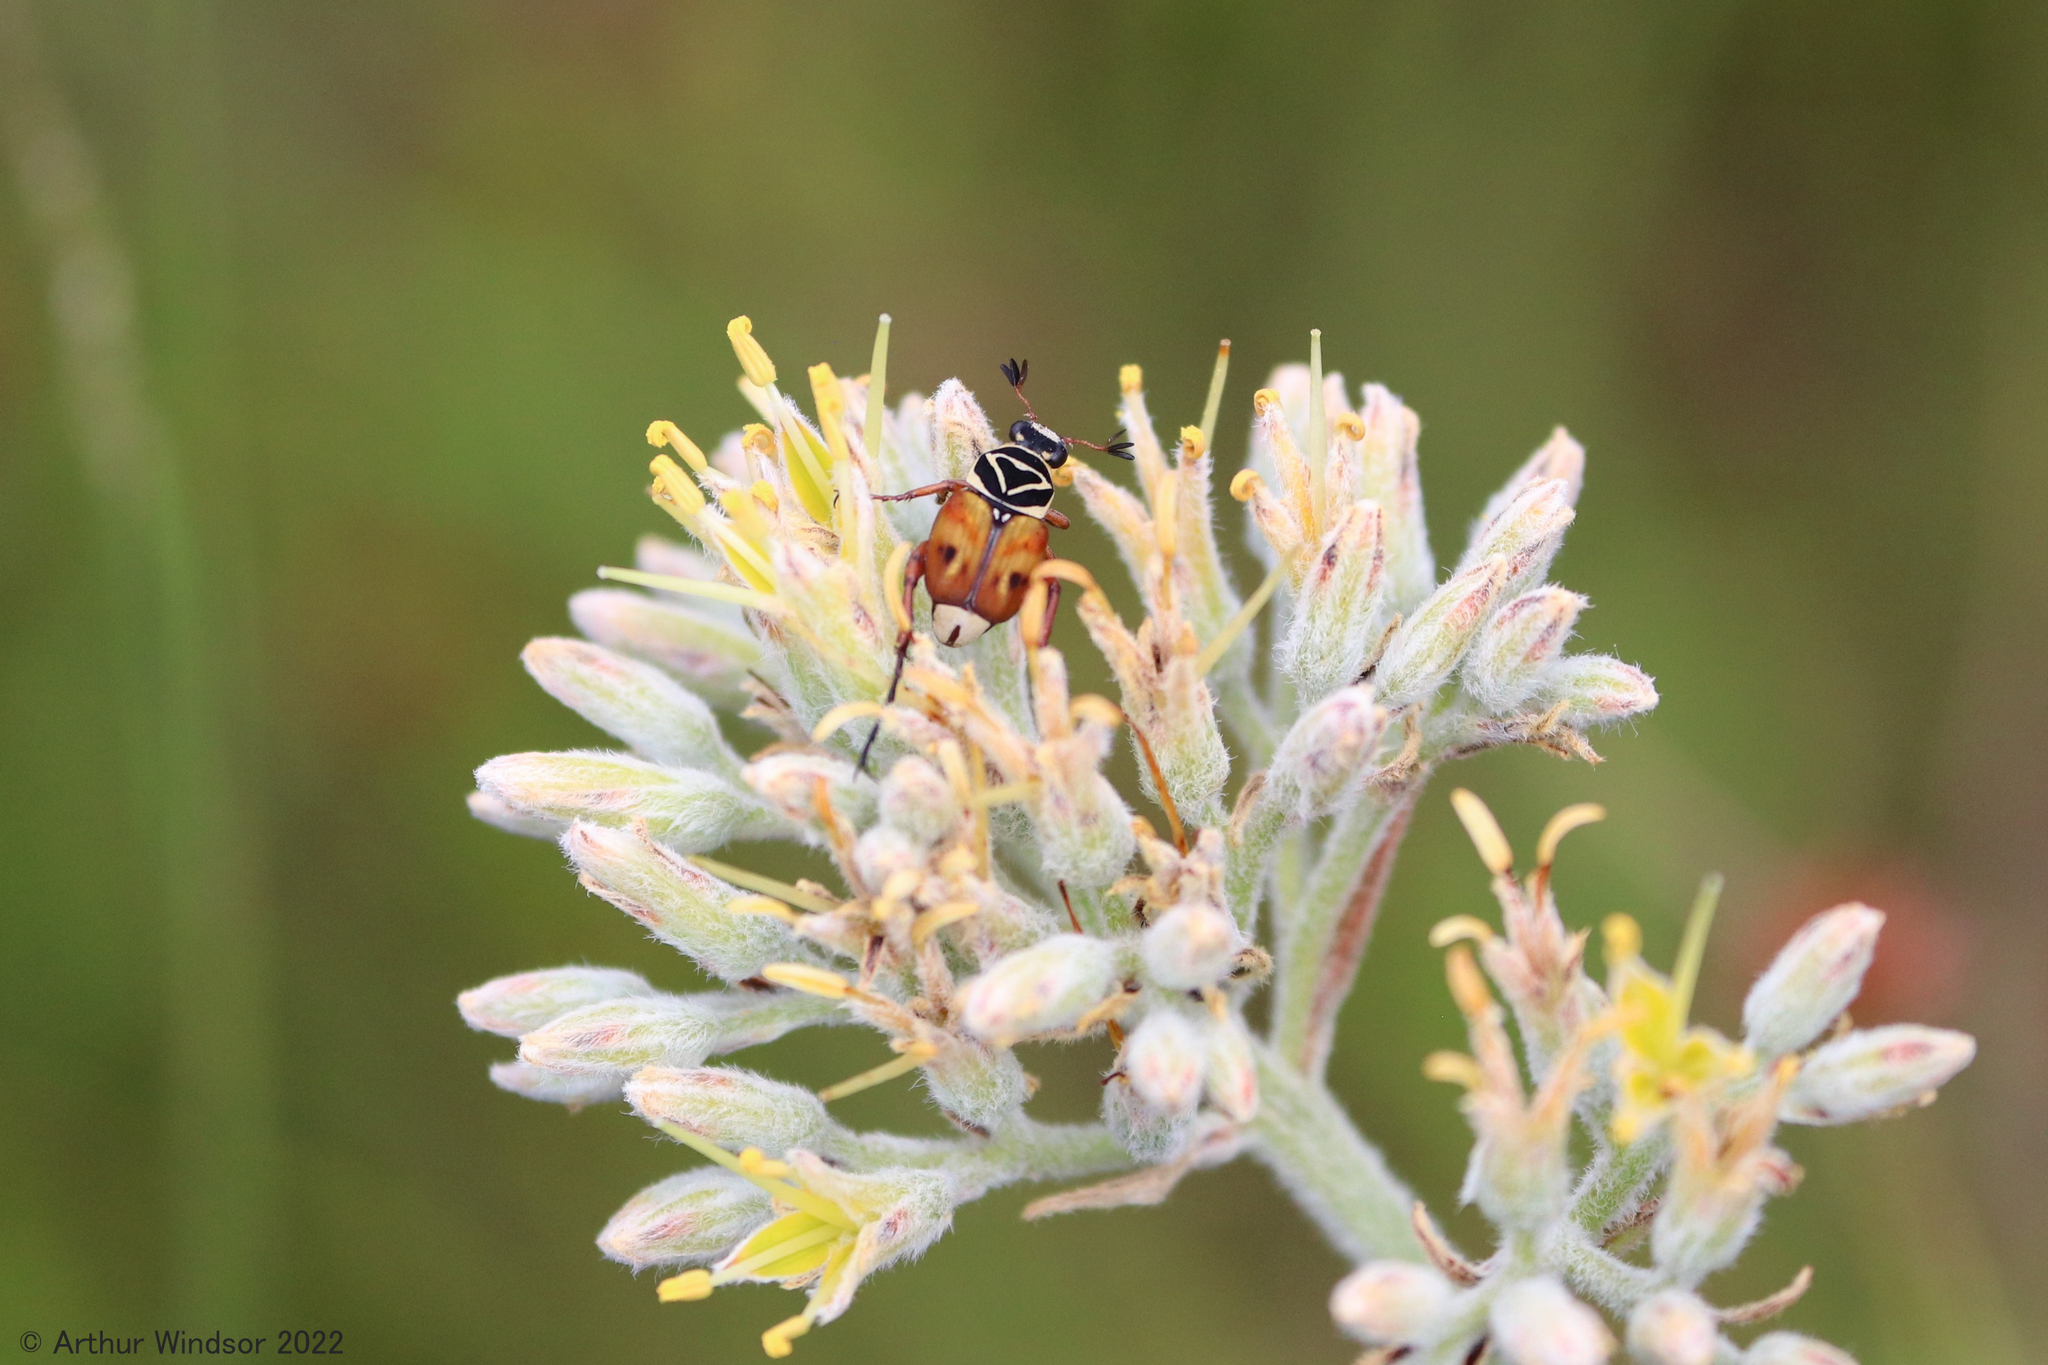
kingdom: Animalia
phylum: Arthropoda
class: Insecta
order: Coleoptera
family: Scarabaeidae
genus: Trigonopeltastes
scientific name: Trigonopeltastes delta
